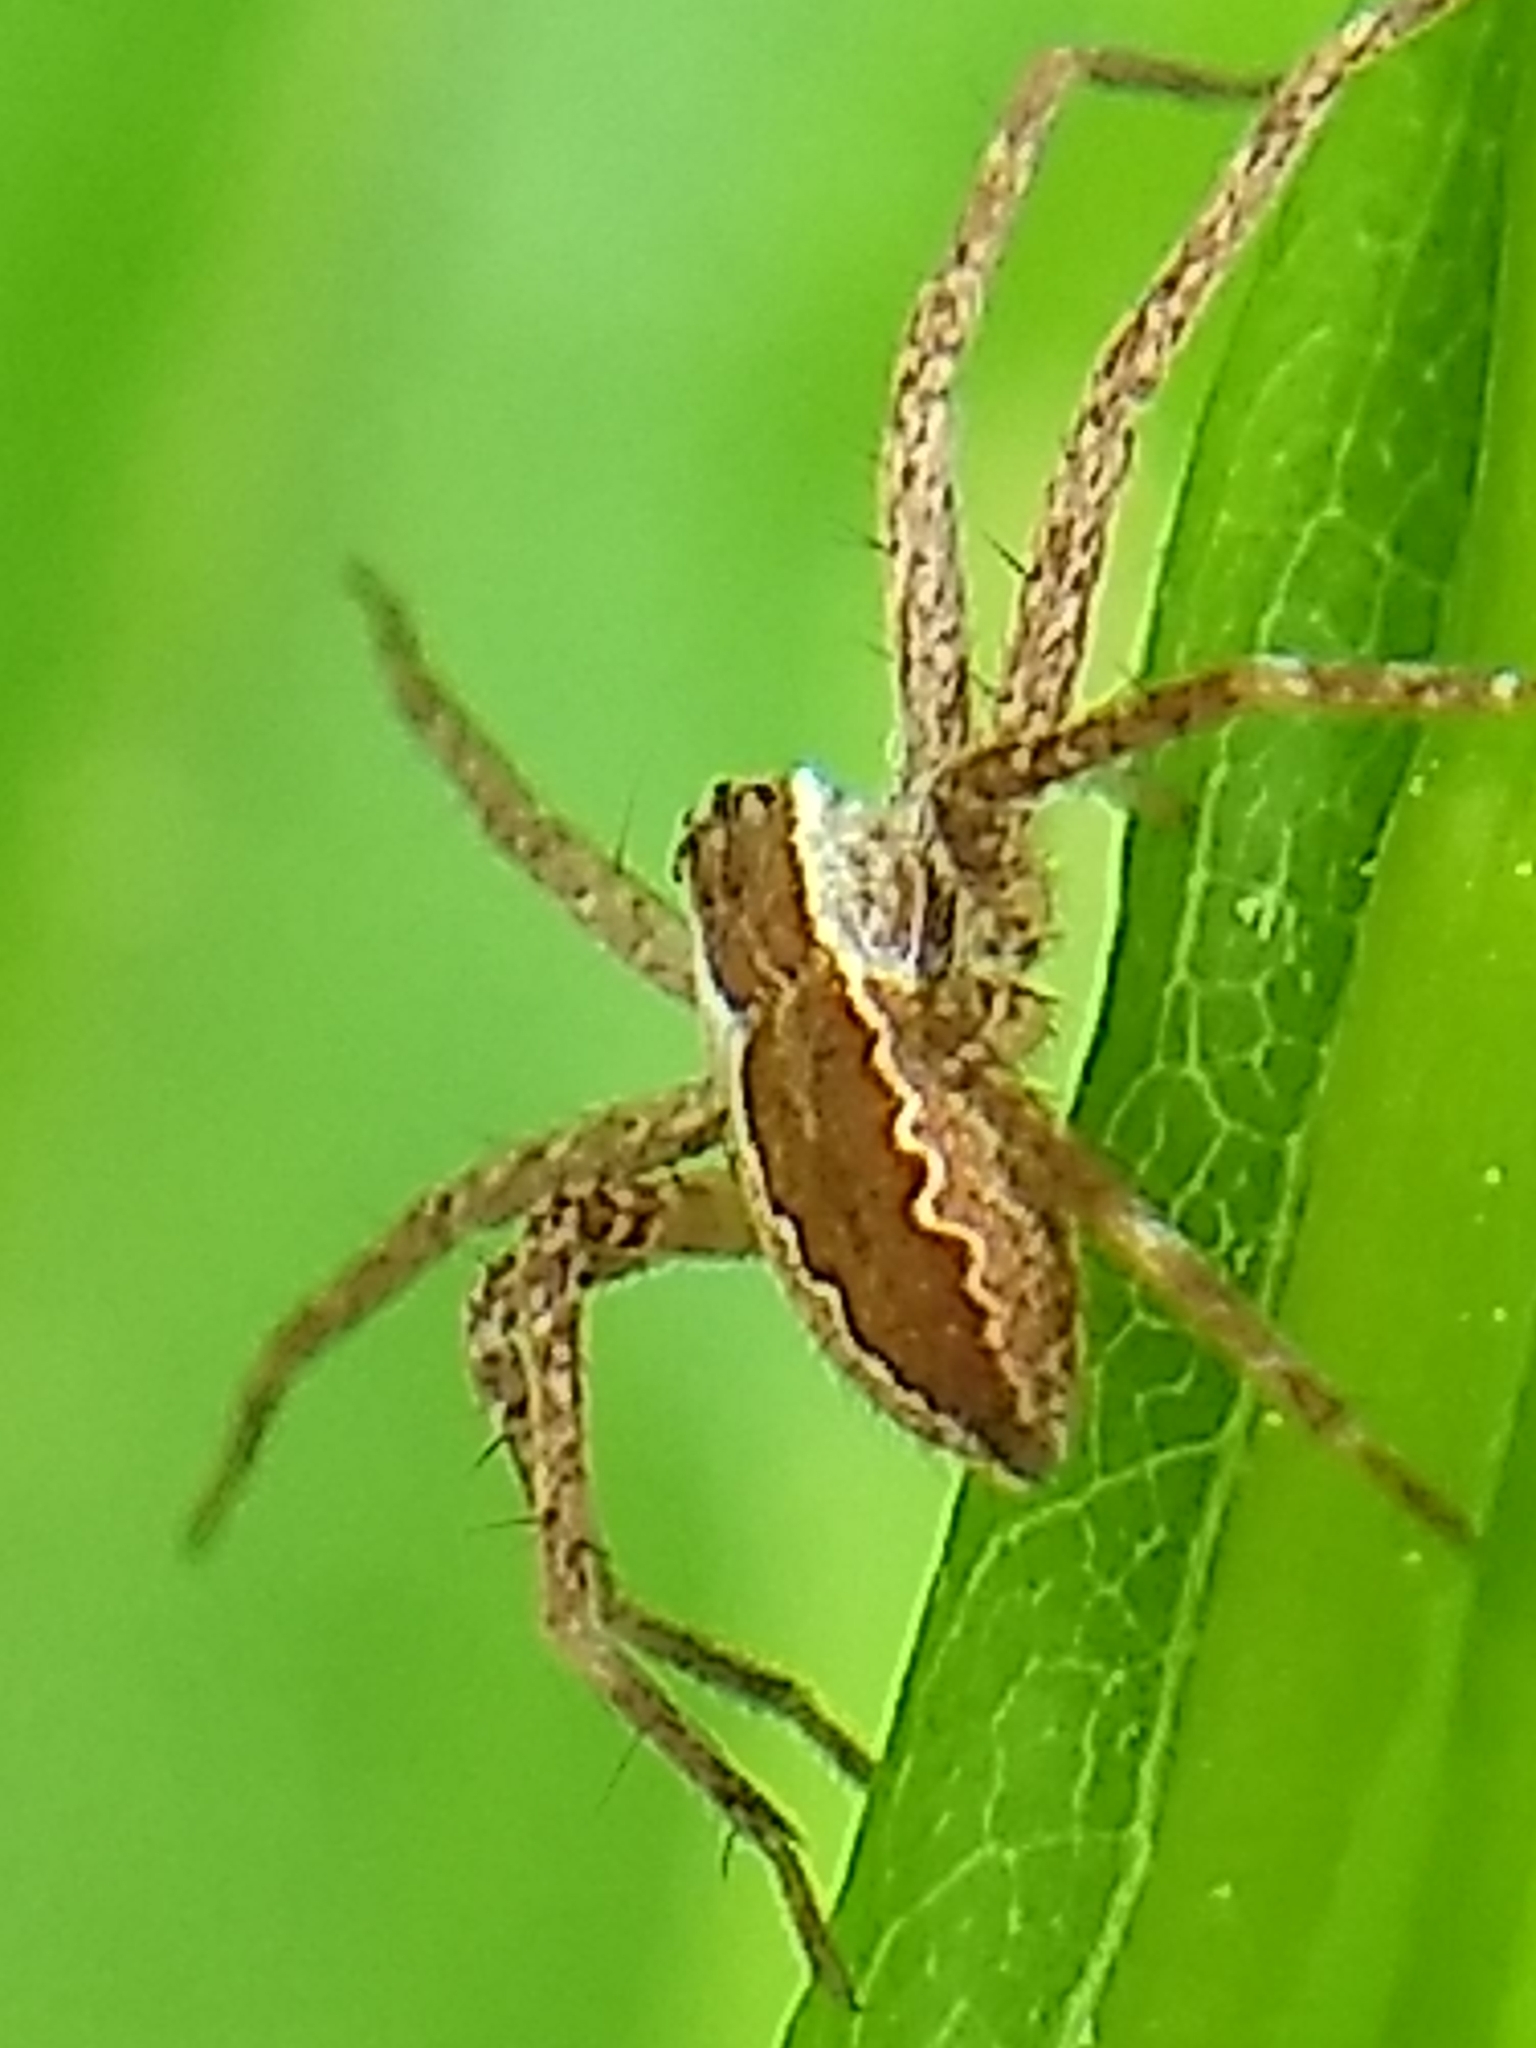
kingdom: Animalia
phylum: Arthropoda
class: Arachnida
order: Araneae
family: Pisauridae
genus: Pisaurina
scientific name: Pisaurina mira
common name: American nursery web spider
